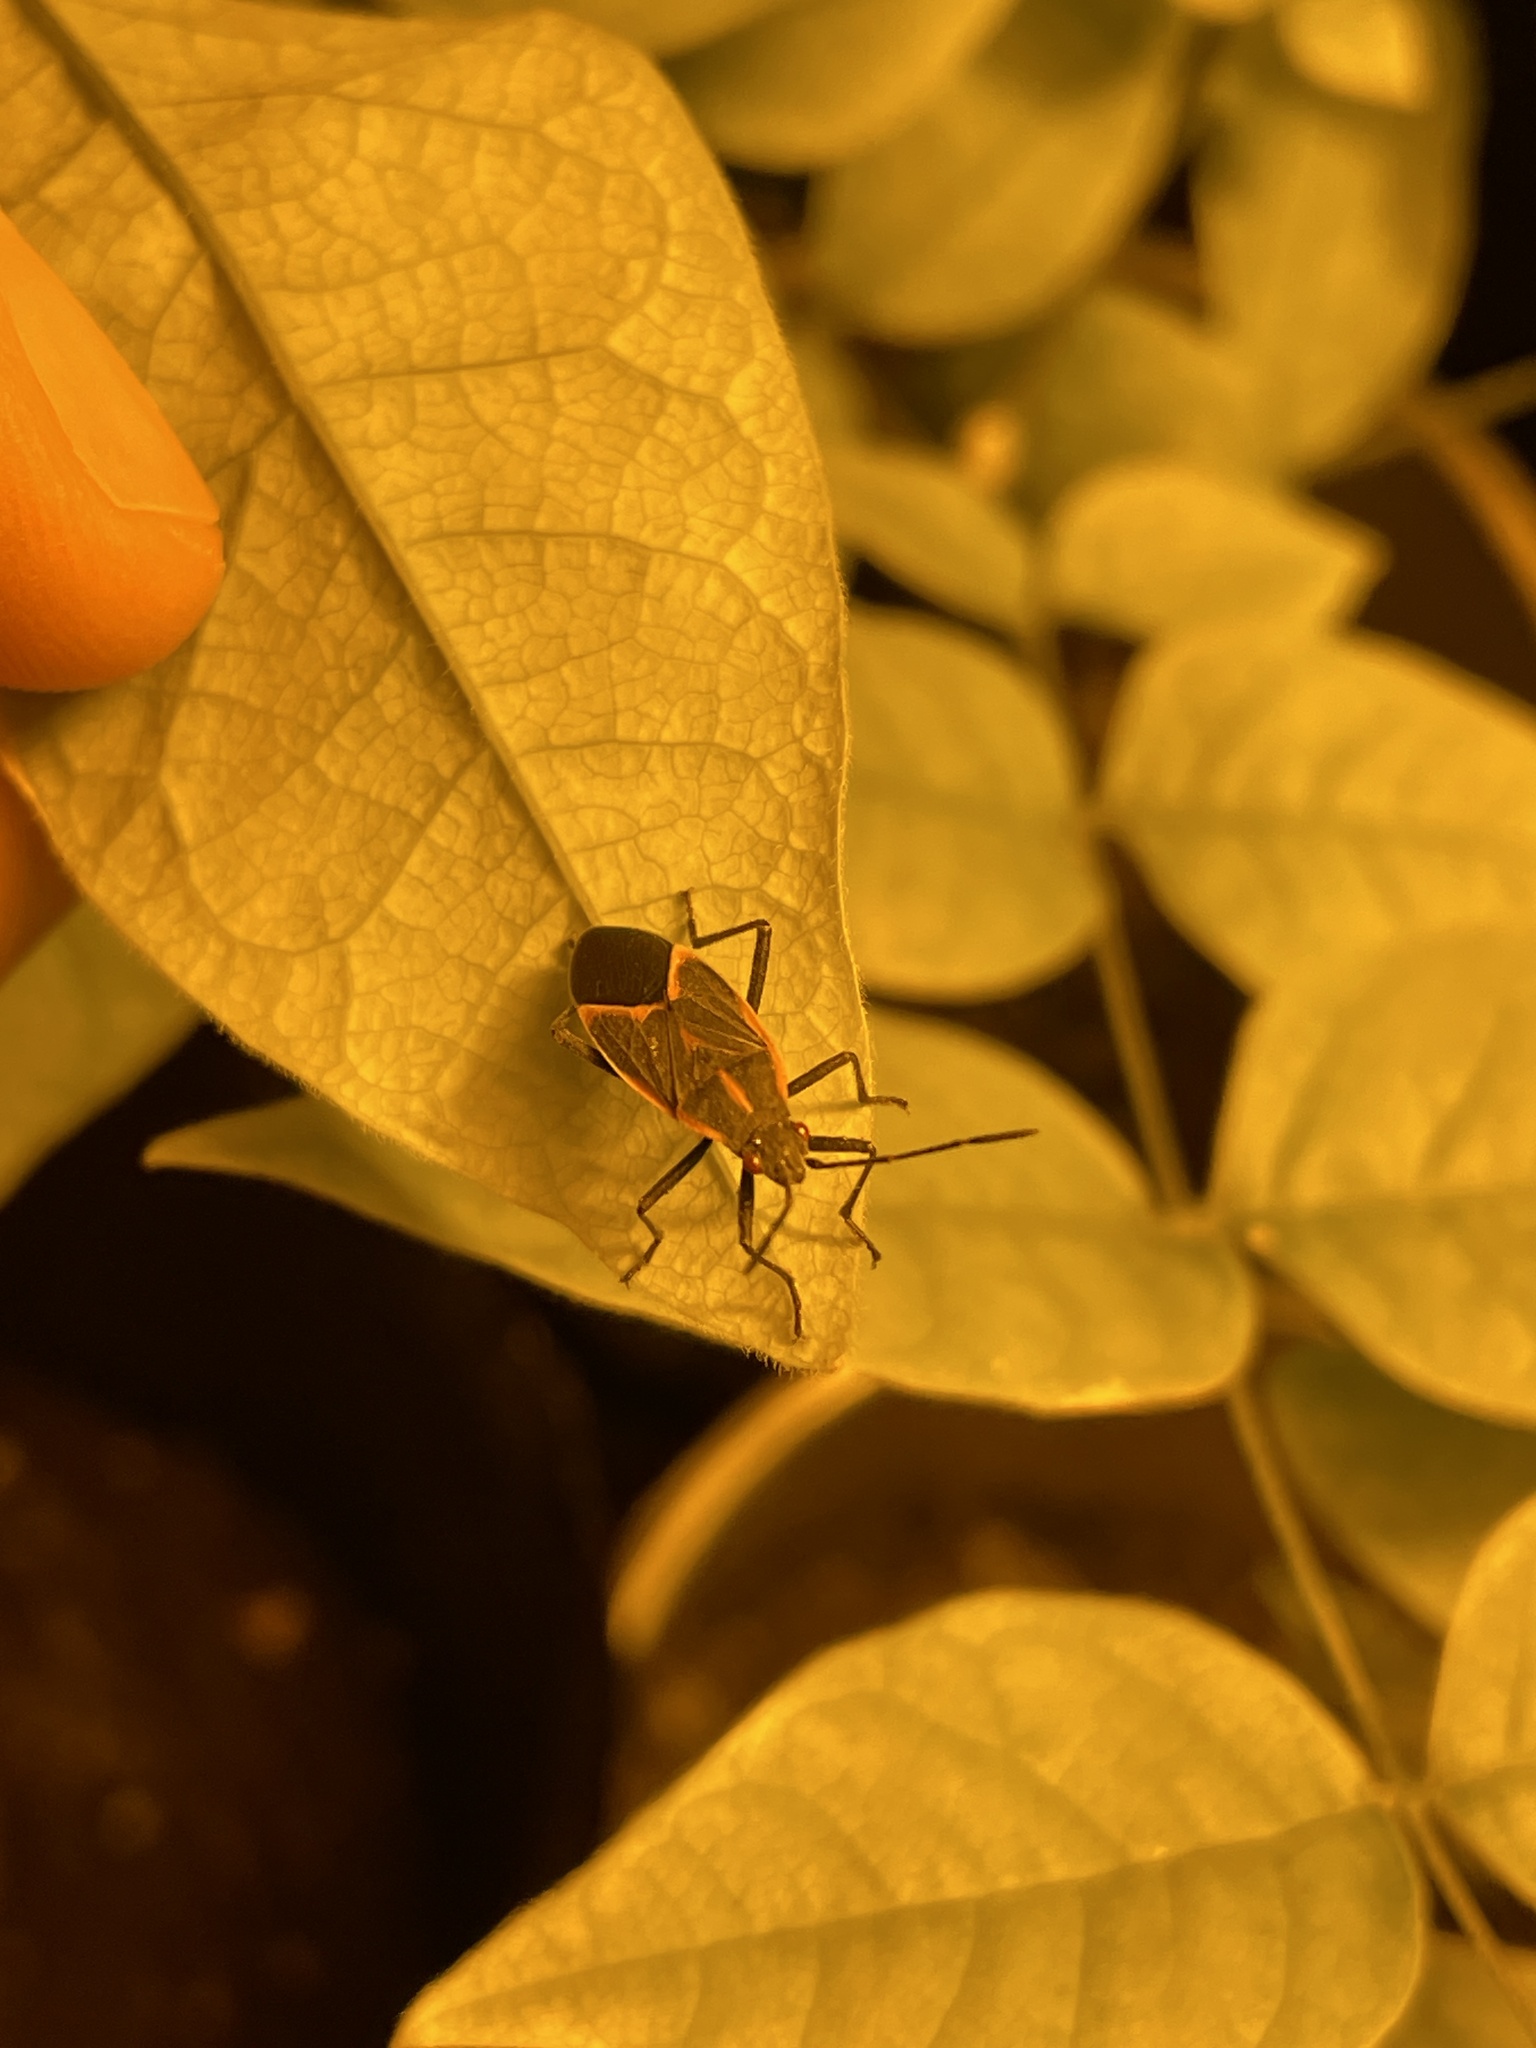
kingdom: Animalia
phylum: Arthropoda
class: Insecta
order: Hemiptera
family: Rhopalidae
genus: Boisea
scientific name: Boisea trivittata
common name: Boxelder bug
